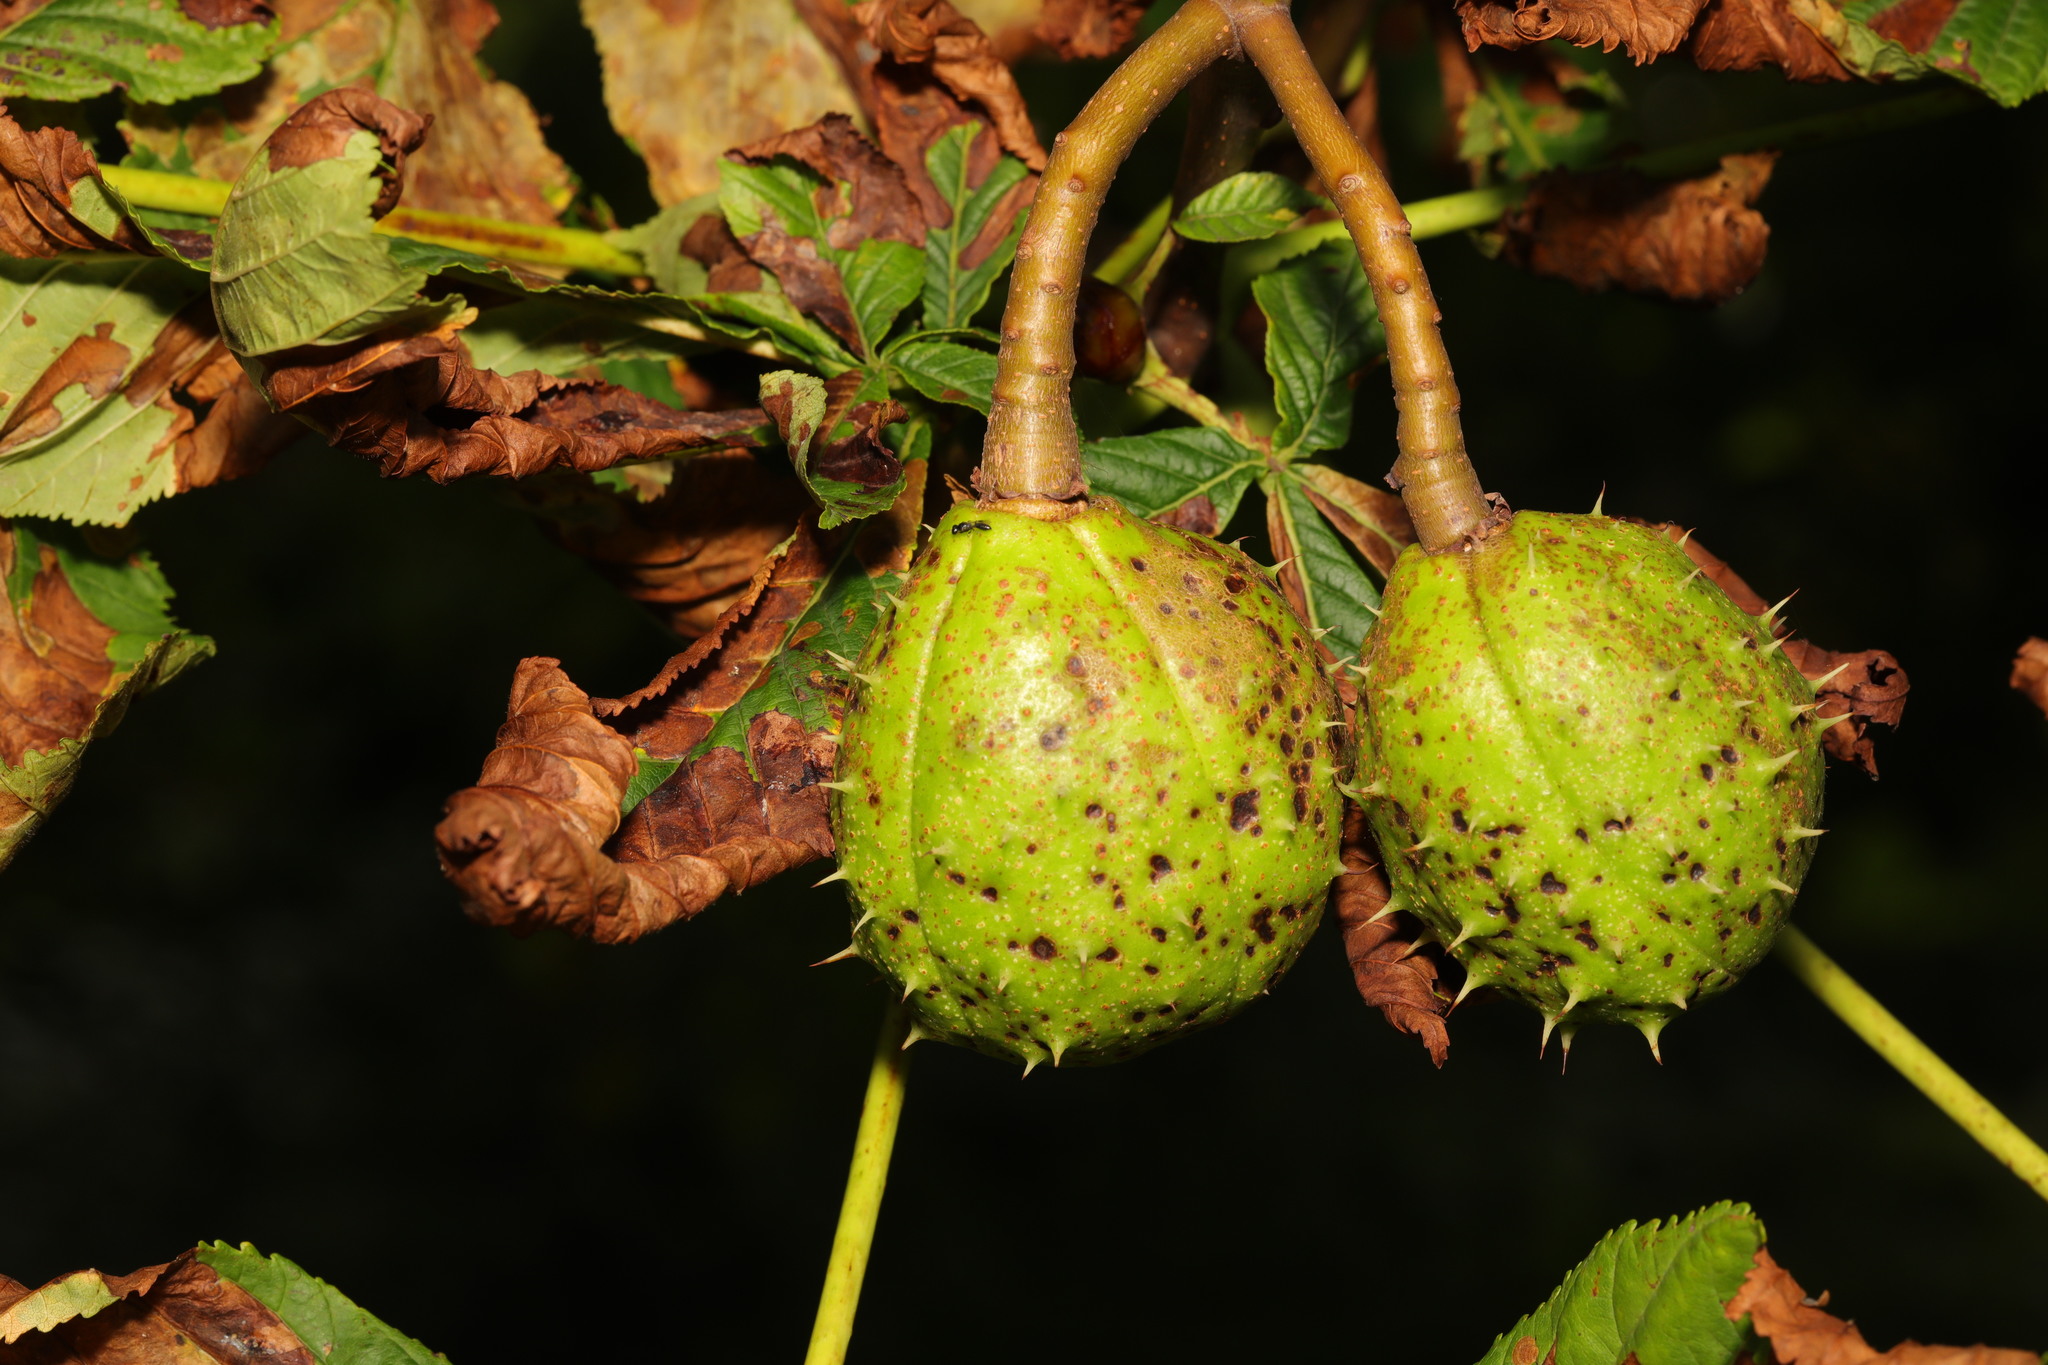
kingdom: Plantae
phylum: Tracheophyta
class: Magnoliopsida
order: Sapindales
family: Sapindaceae
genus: Aesculus
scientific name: Aesculus hippocastanum
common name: Horse-chestnut
